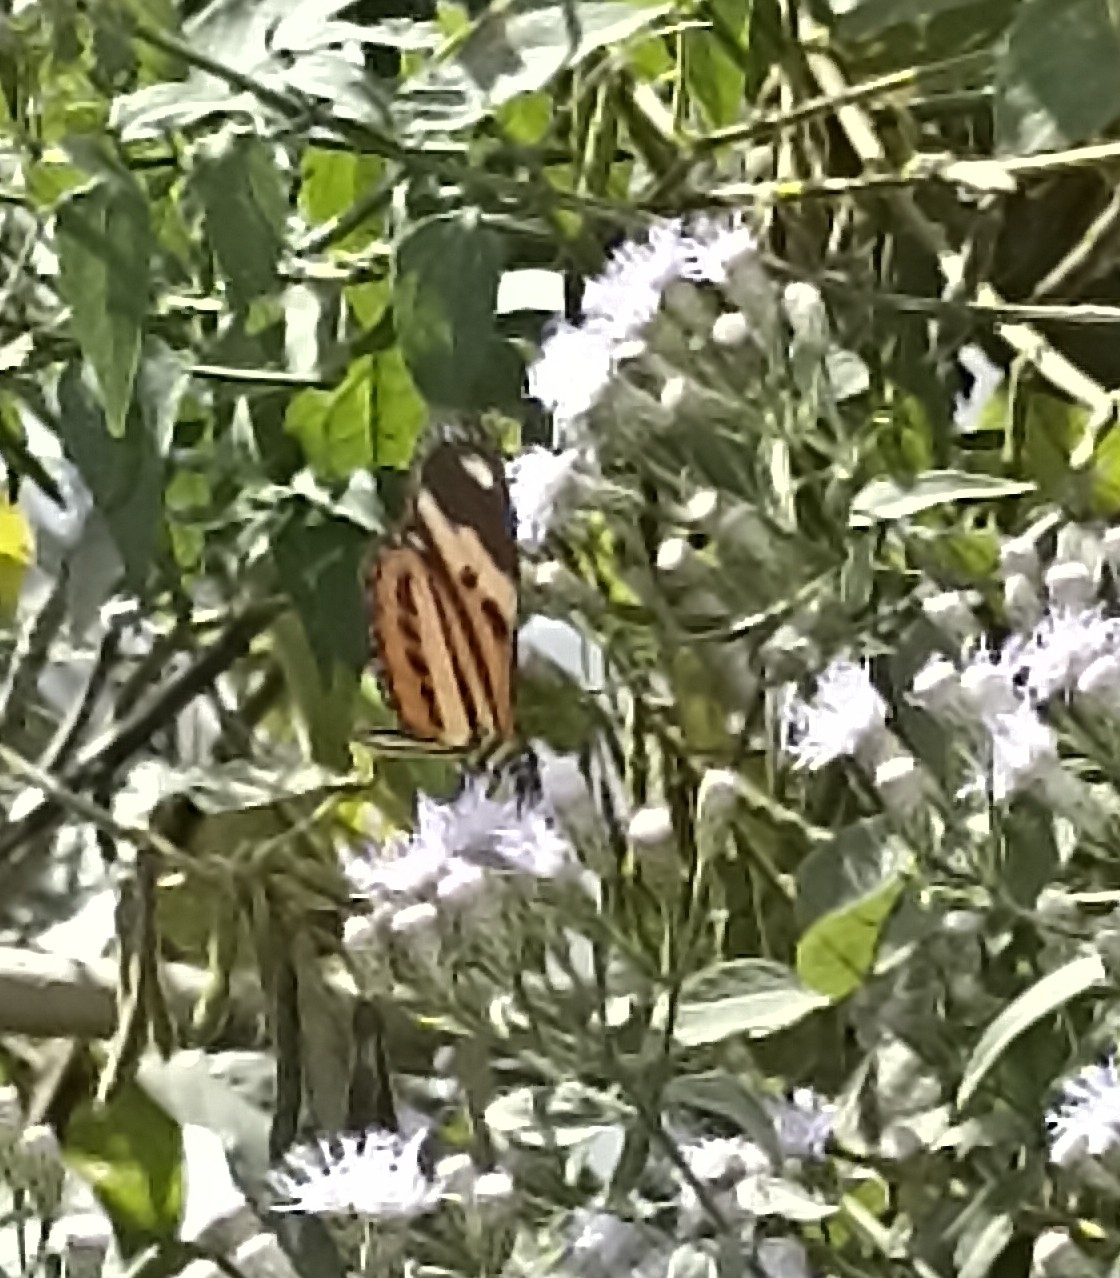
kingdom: Animalia
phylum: Arthropoda
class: Insecta
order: Lepidoptera
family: Nymphalidae
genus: Eueides
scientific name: Eueides isabella
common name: Isabella's longwing
